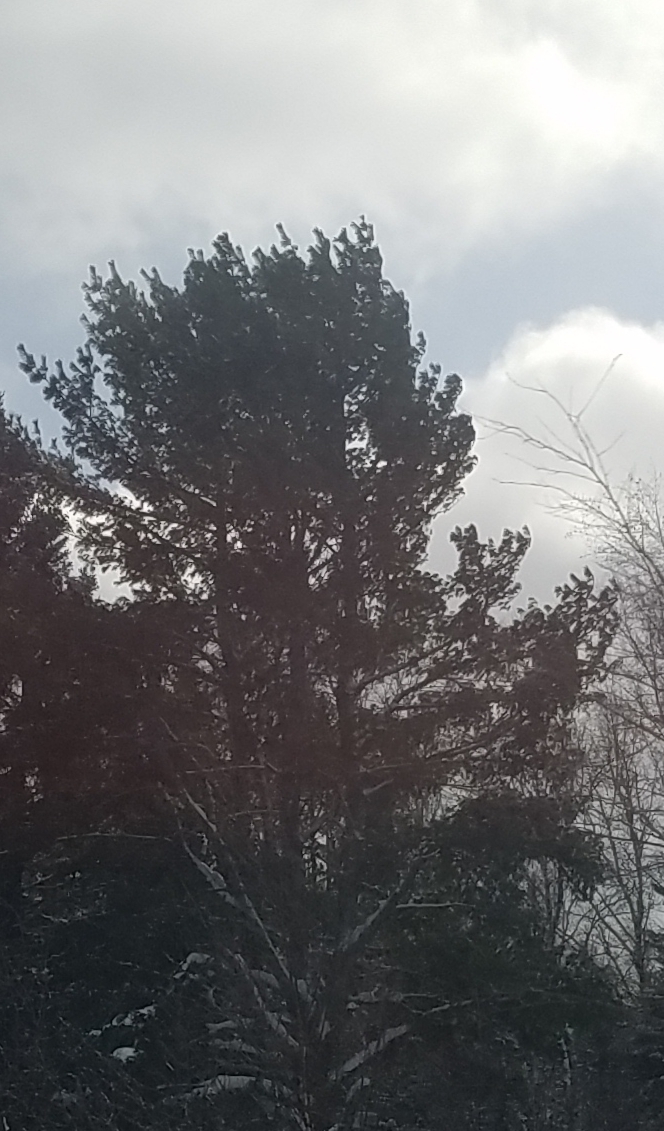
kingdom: Plantae
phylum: Tracheophyta
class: Pinopsida
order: Pinales
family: Pinaceae
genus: Pinus
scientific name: Pinus strobus
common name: Weymouth pine
